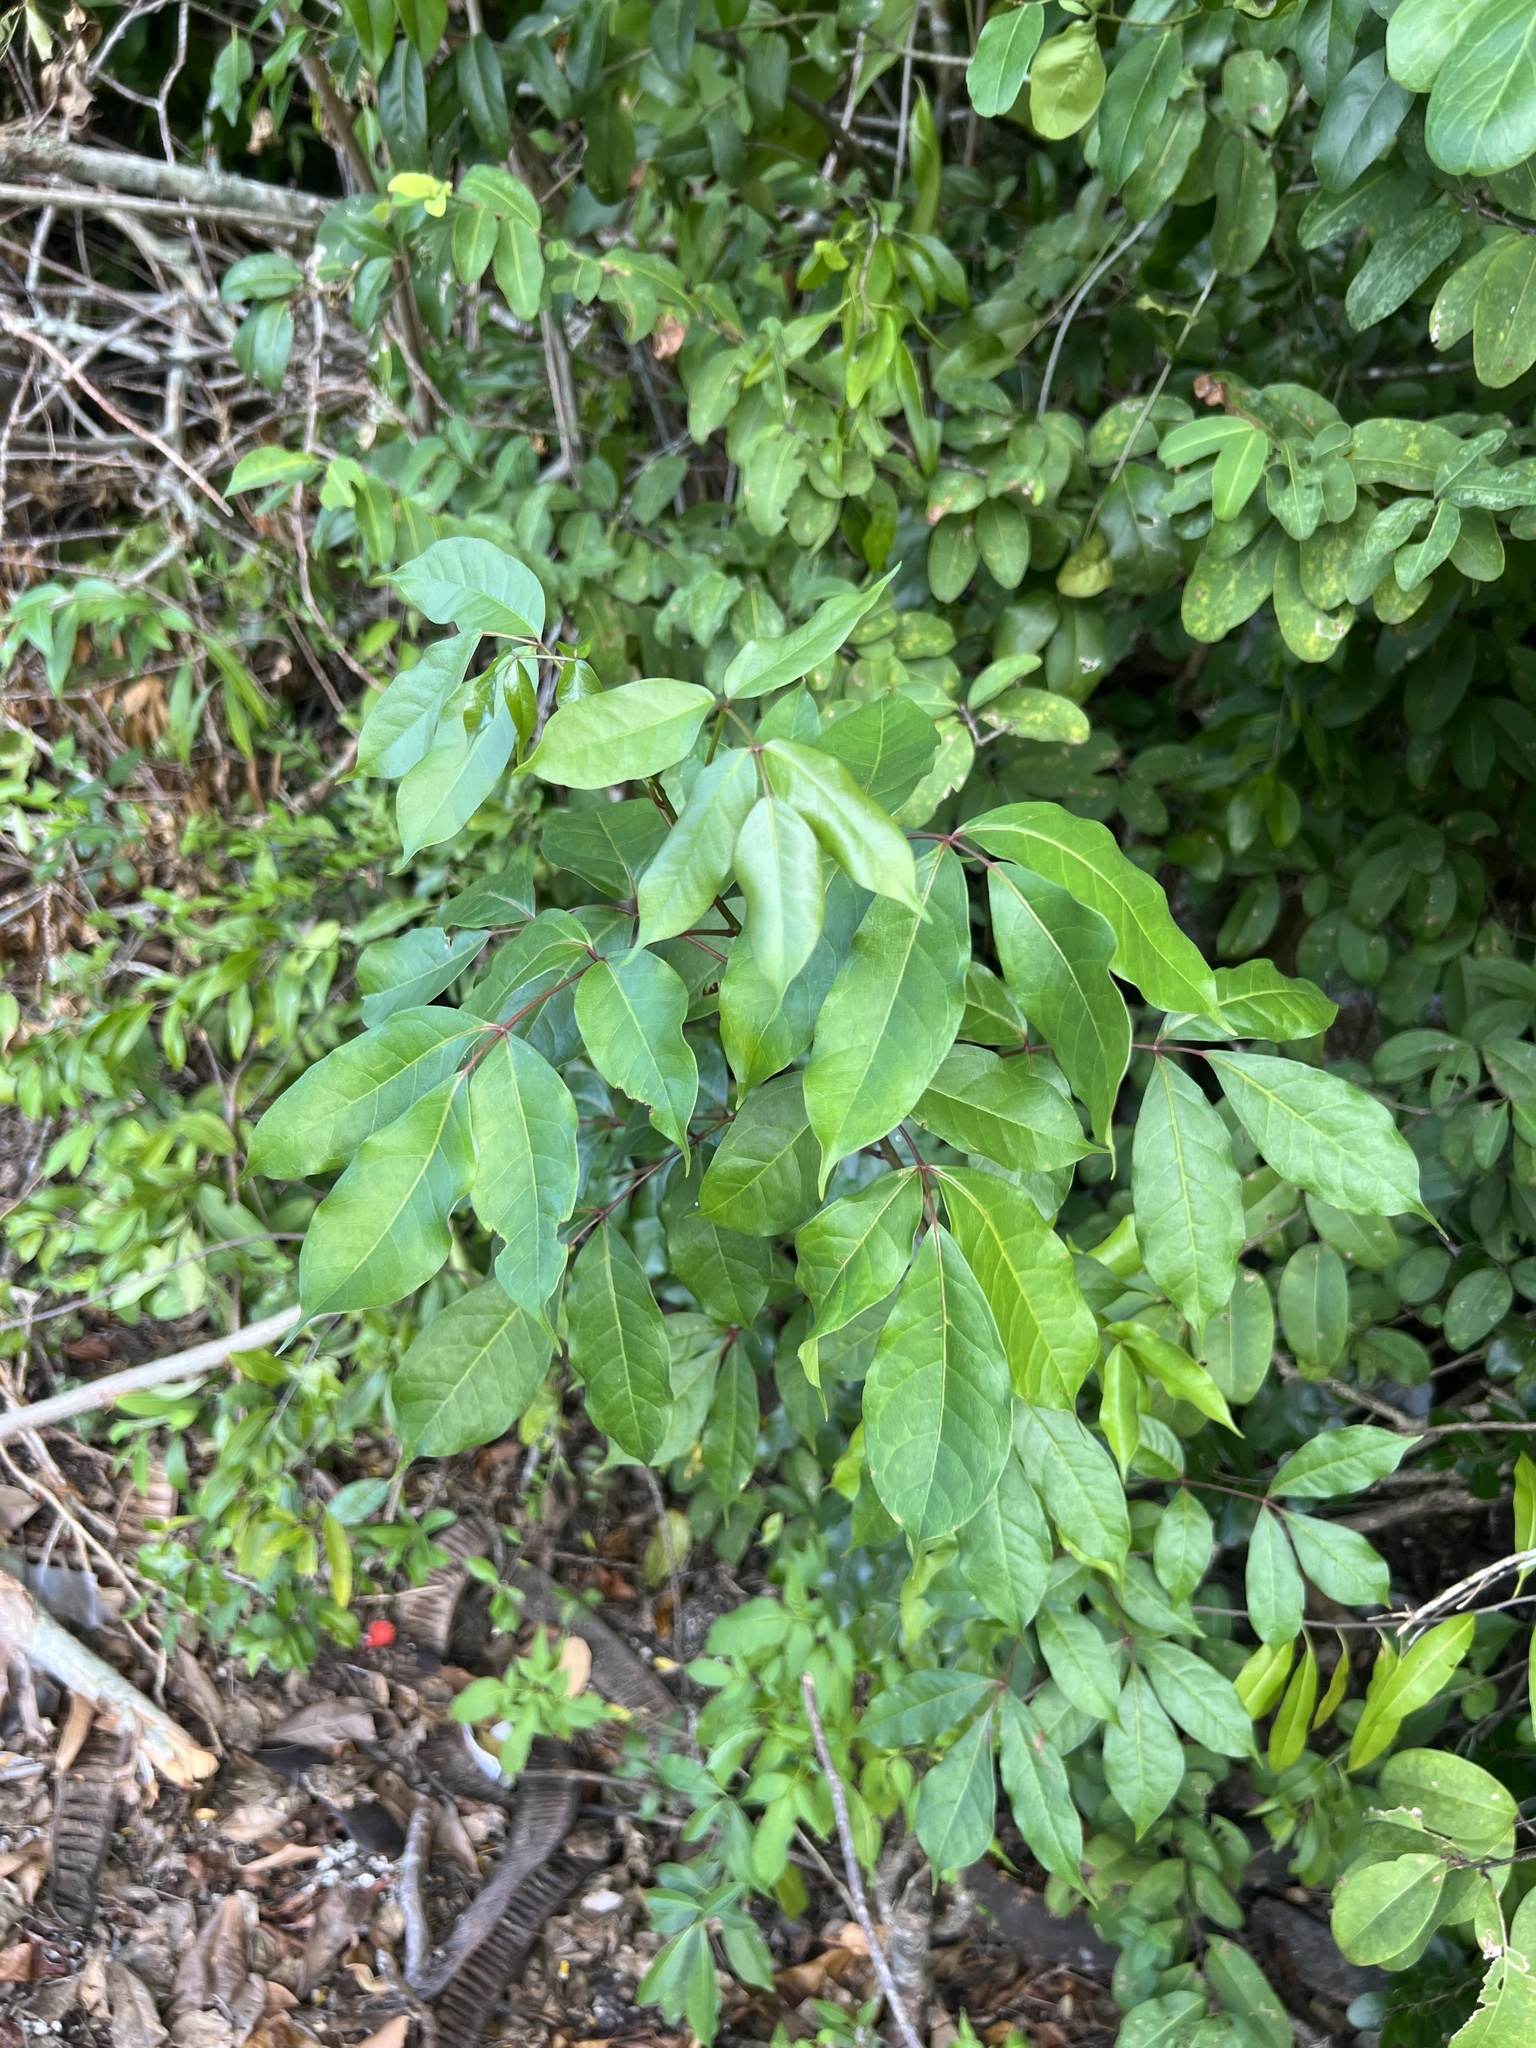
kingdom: Plantae
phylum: Tracheophyta
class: Magnoliopsida
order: Sapindales
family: Burseraceae
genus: Bursera
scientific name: Bursera simaruba
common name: Turpentine tree
